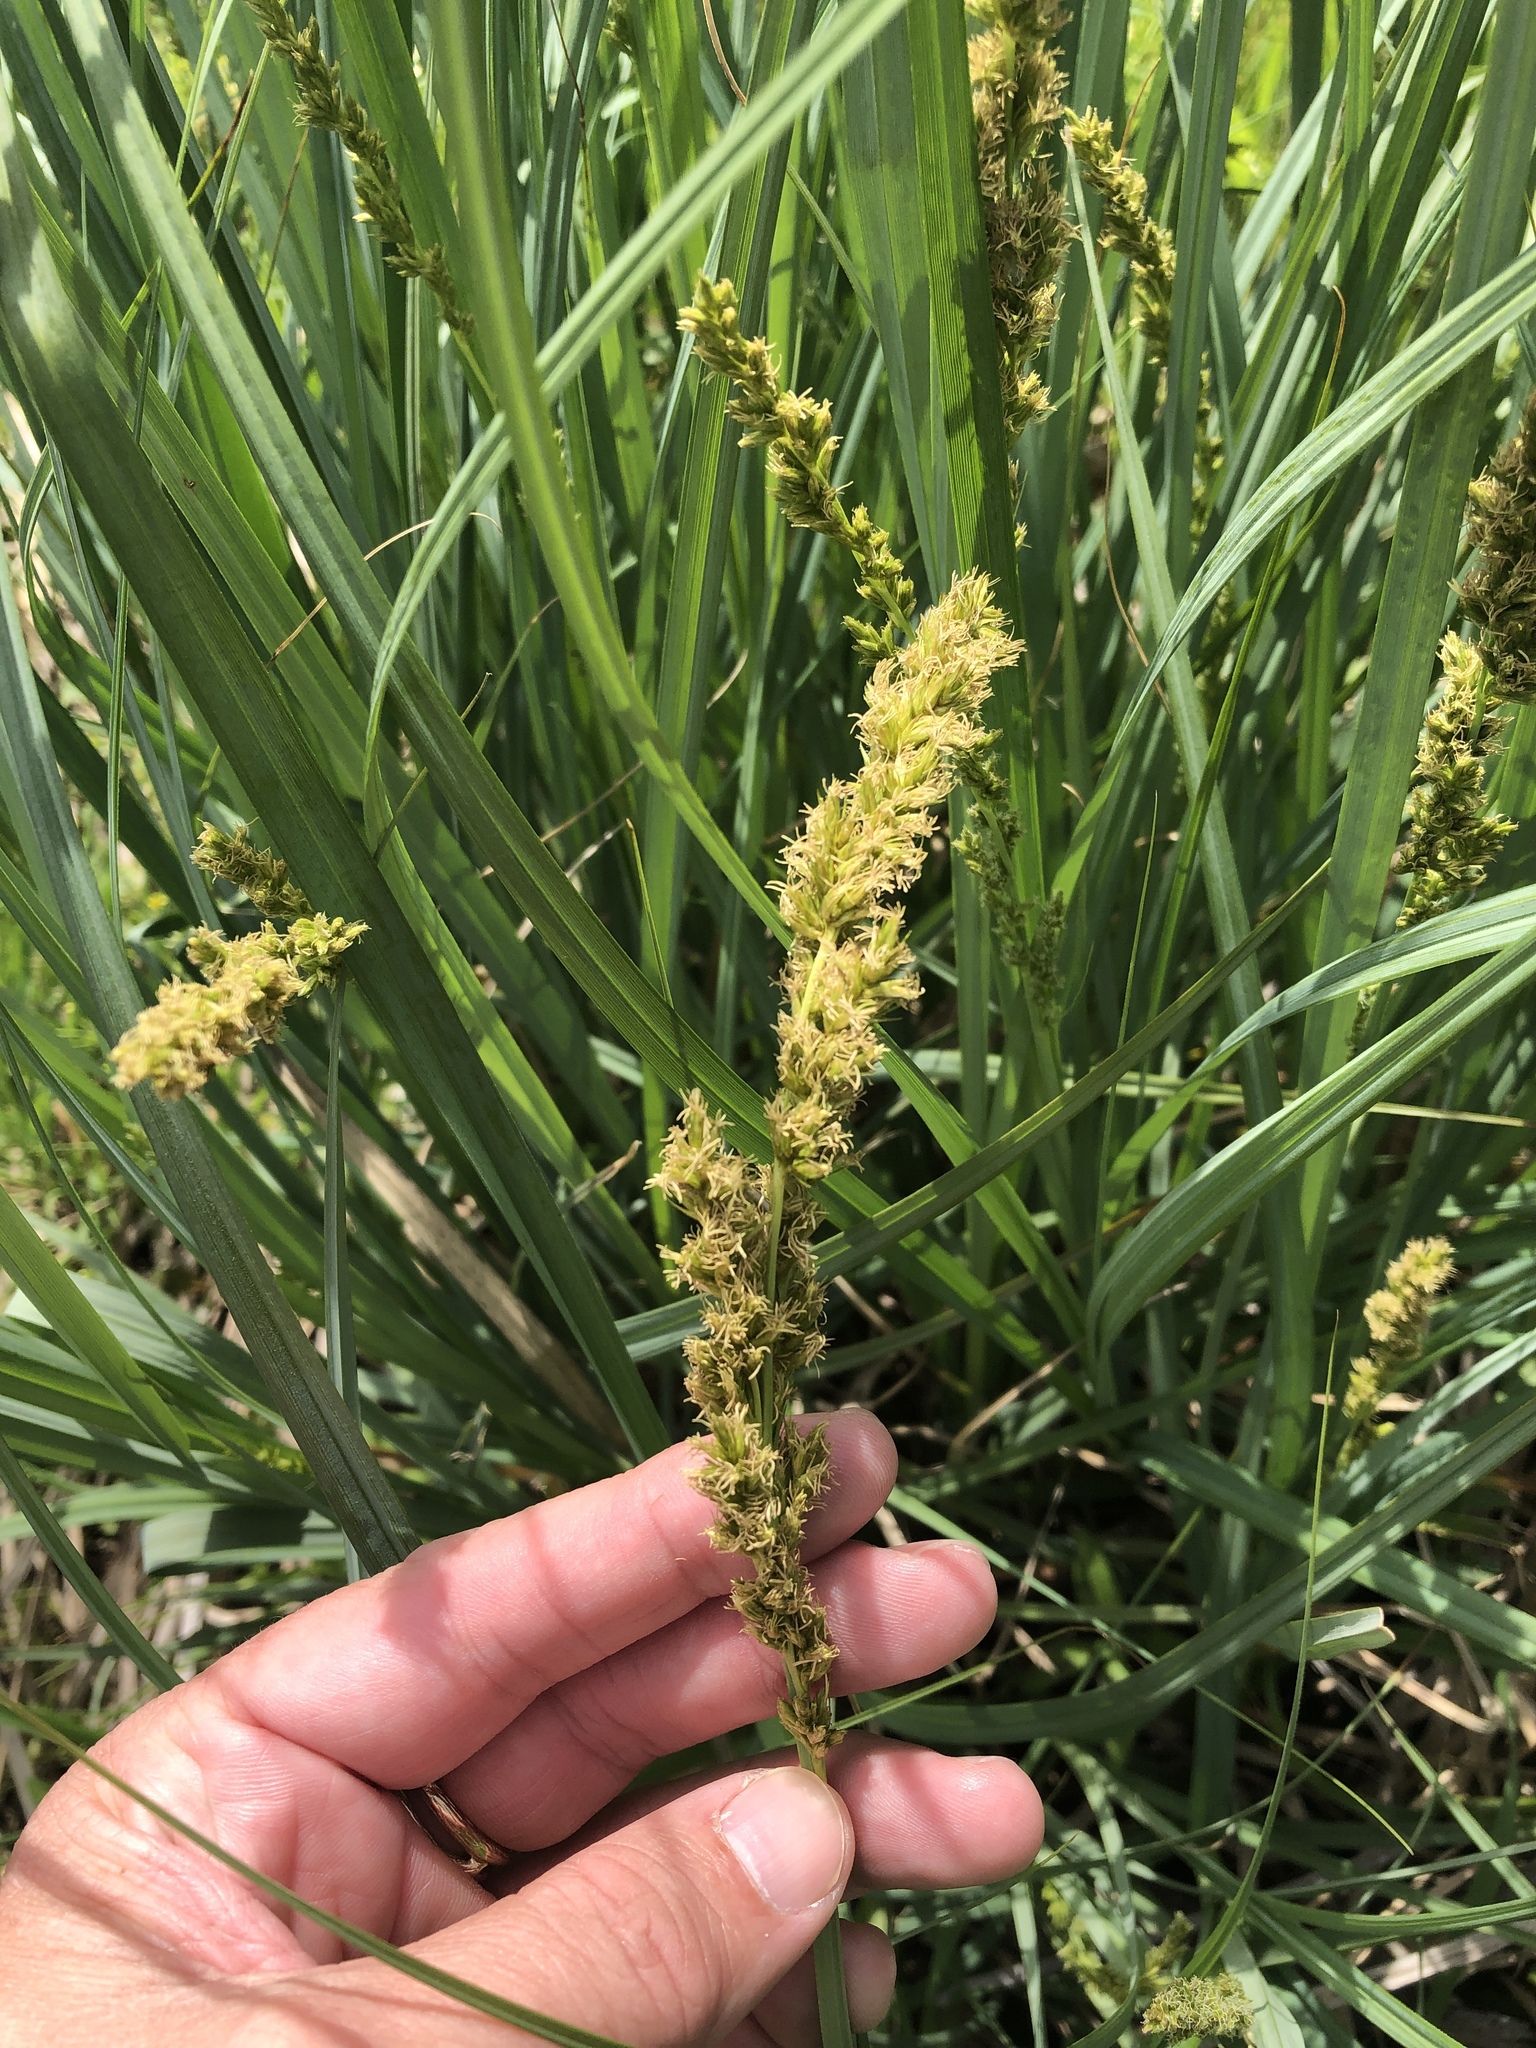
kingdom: Plantae
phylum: Tracheophyta
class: Liliopsida
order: Poales
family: Cyperaceae
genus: Carex
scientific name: Carex crus-corvi
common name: Crow-spur sedge
